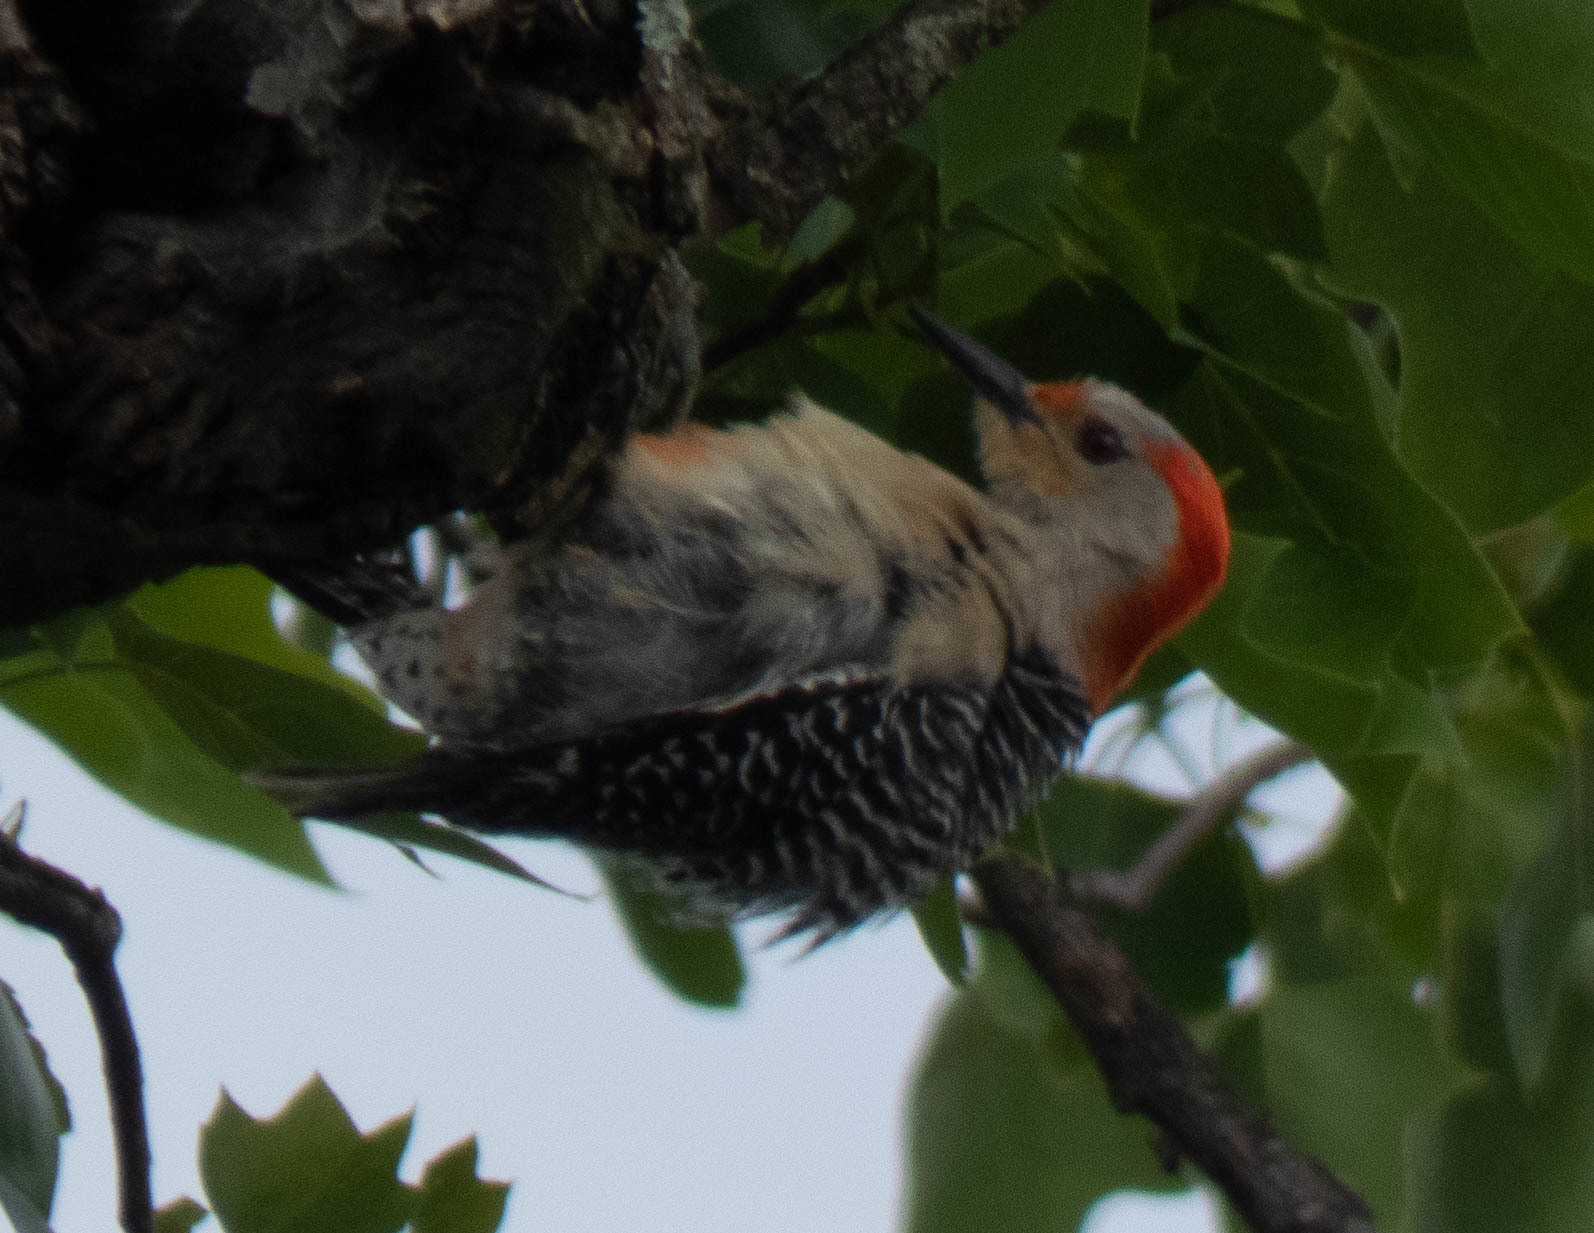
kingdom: Animalia
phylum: Chordata
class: Aves
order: Piciformes
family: Picidae
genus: Melanerpes
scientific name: Melanerpes carolinus
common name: Red-bellied woodpecker
